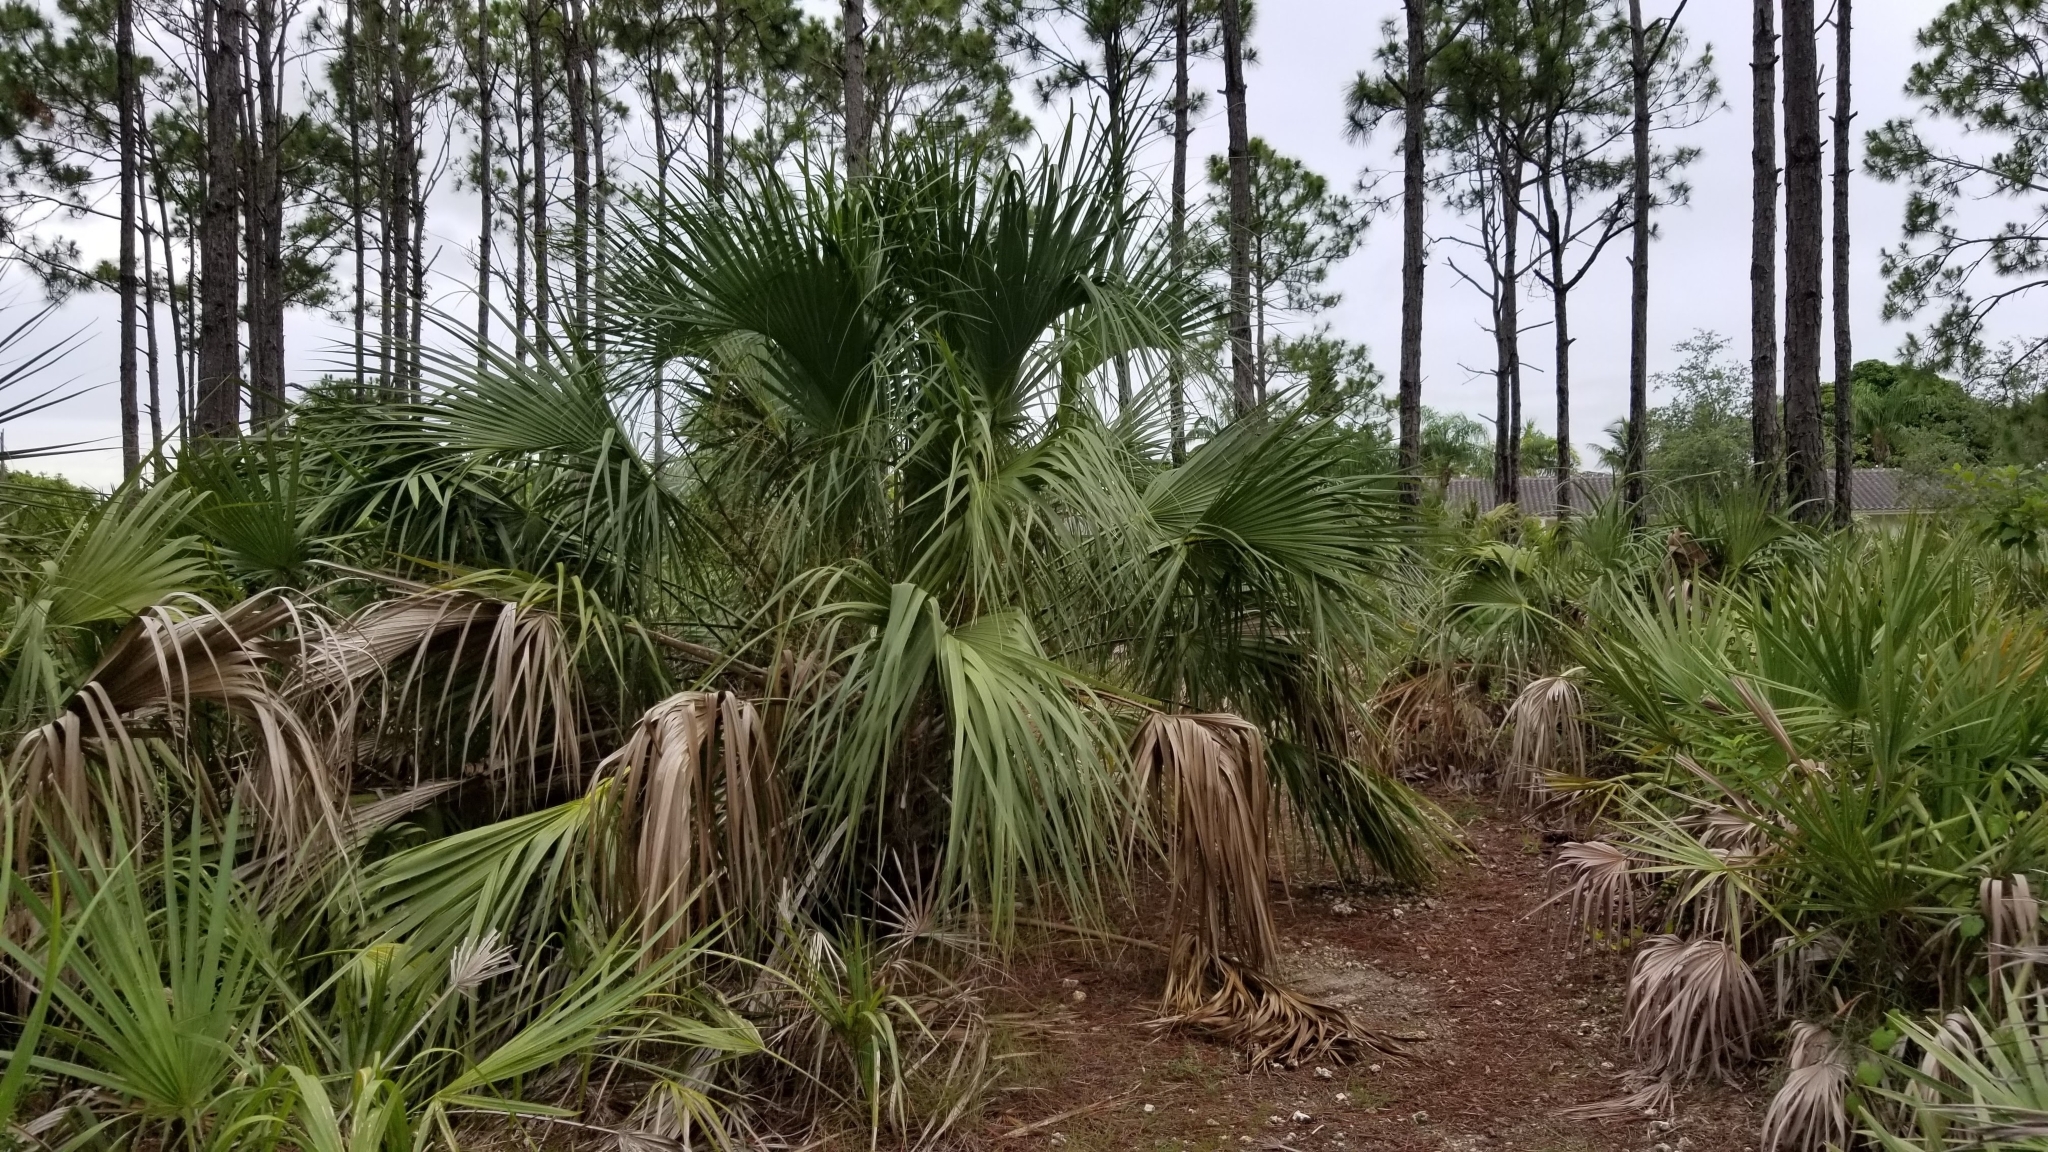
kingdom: Plantae
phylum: Tracheophyta
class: Liliopsida
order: Arecales
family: Arecaceae
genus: Sabal
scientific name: Sabal palmetto
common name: Blue palmetto
